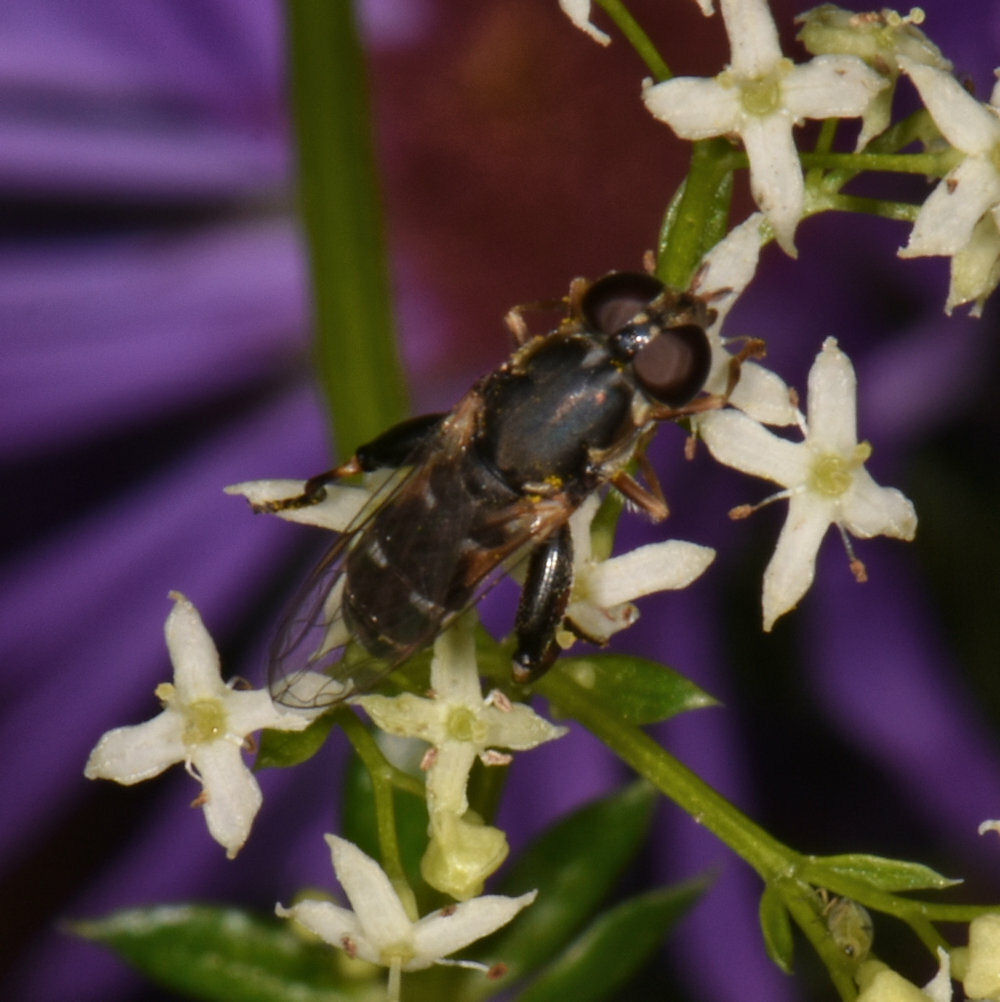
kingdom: Animalia
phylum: Arthropoda
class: Insecta
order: Diptera
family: Syrphidae
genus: Syritta
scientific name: Syritta pipiens
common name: Hover fly
